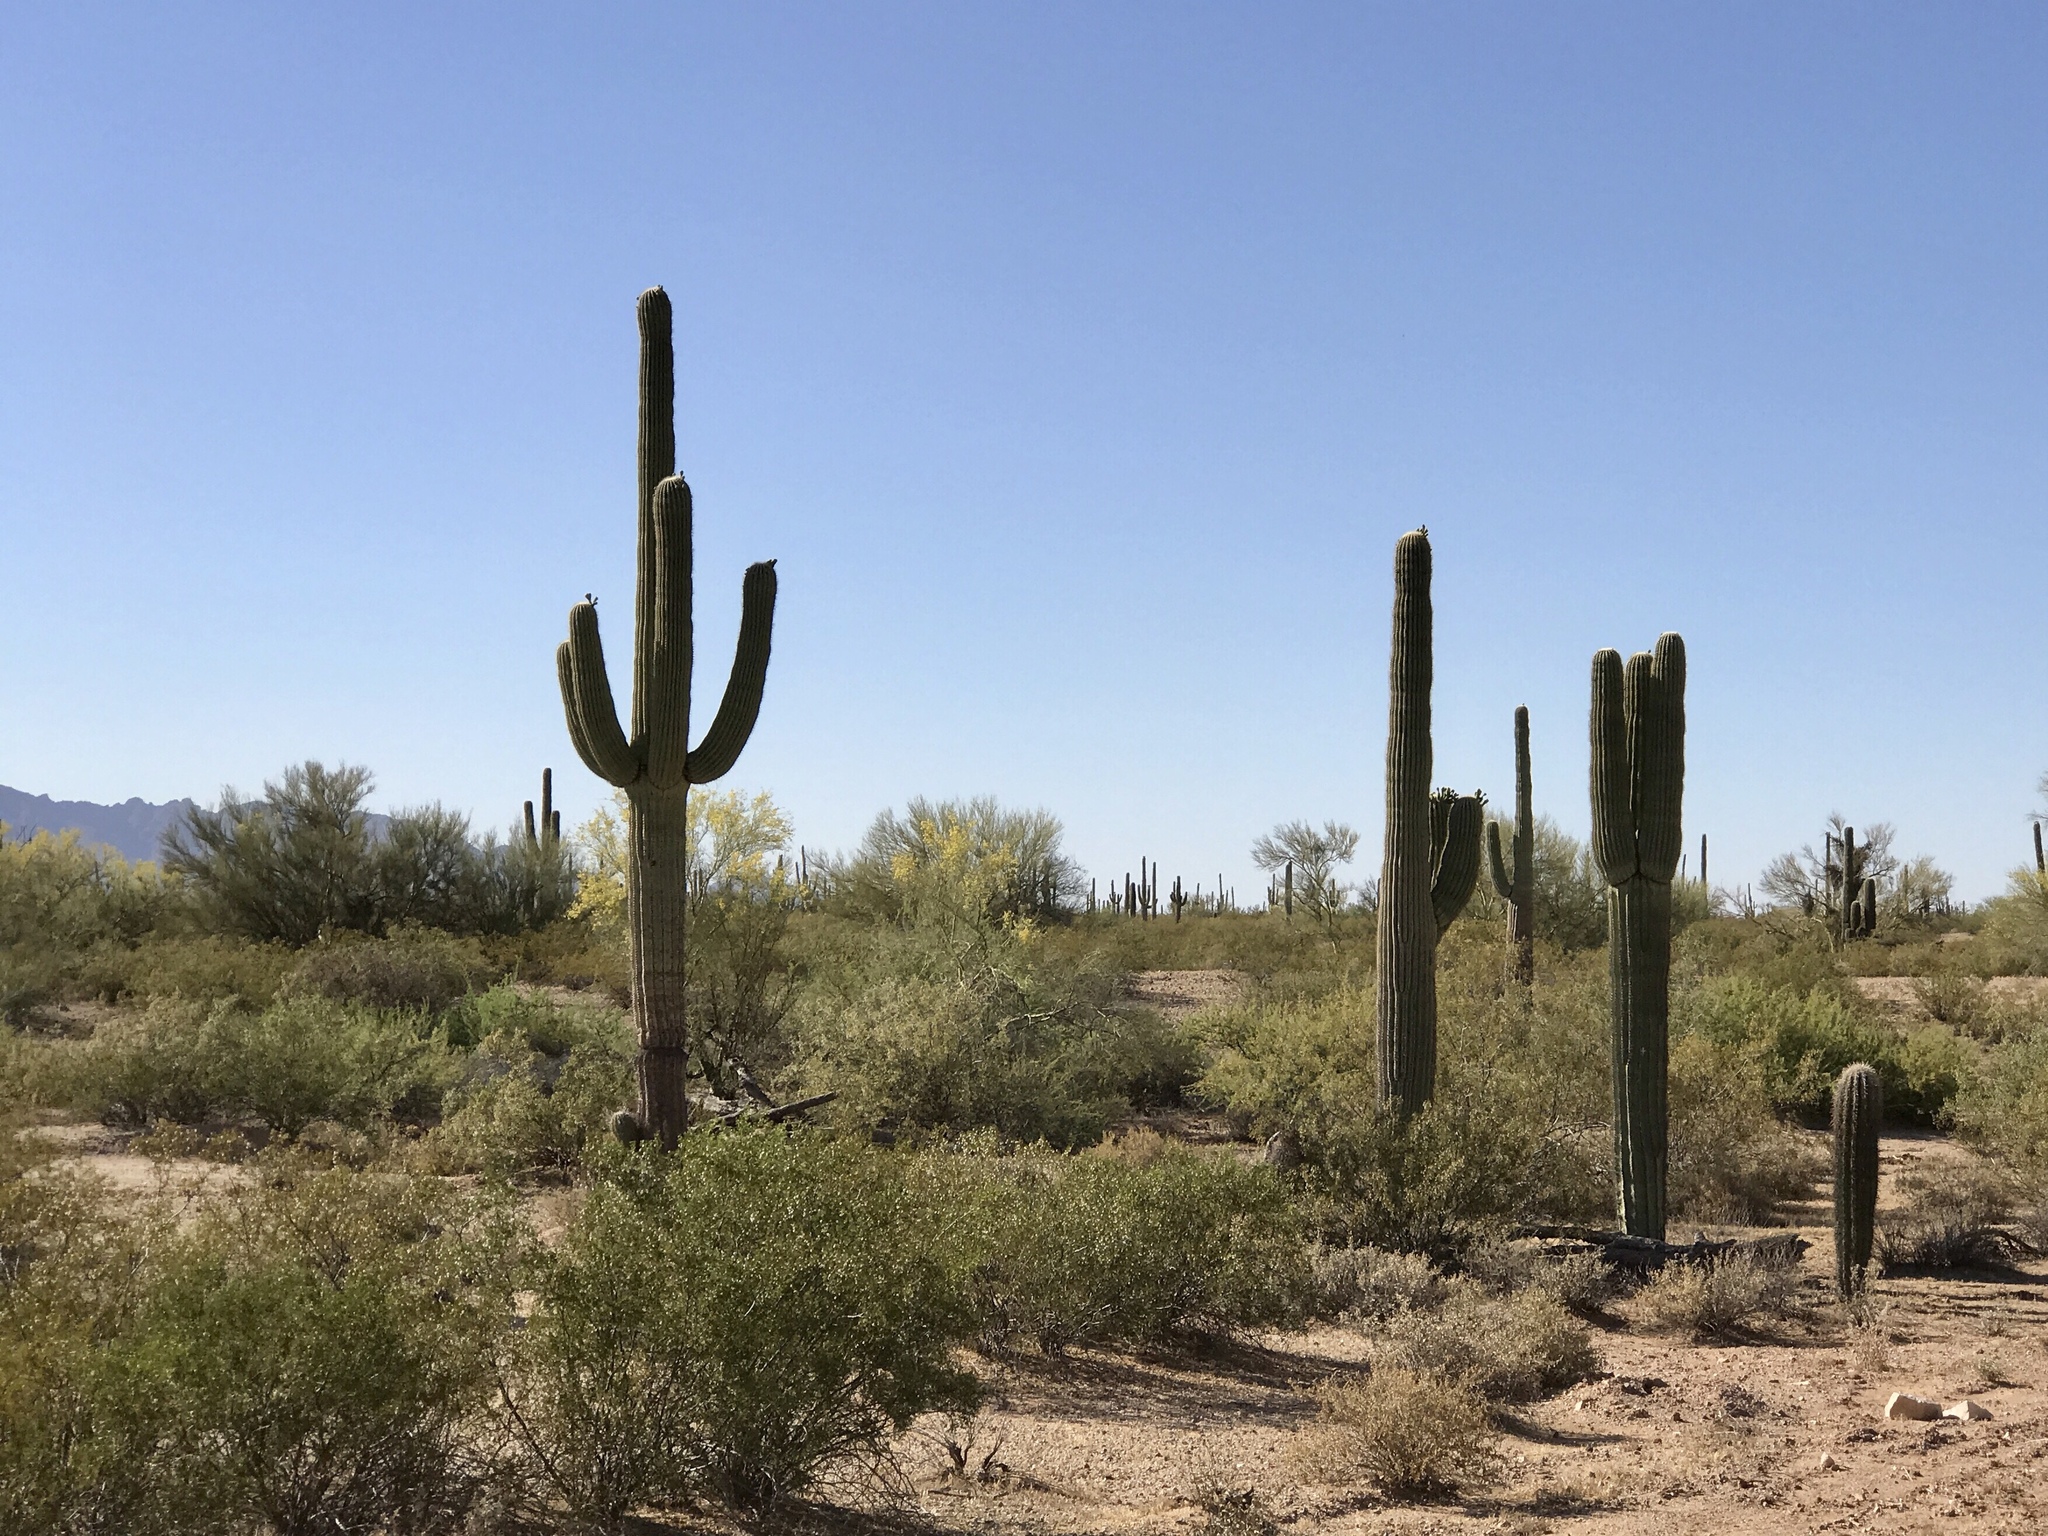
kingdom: Plantae
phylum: Tracheophyta
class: Magnoliopsida
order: Caryophyllales
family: Cactaceae
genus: Carnegiea
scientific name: Carnegiea gigantea
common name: Saguaro
